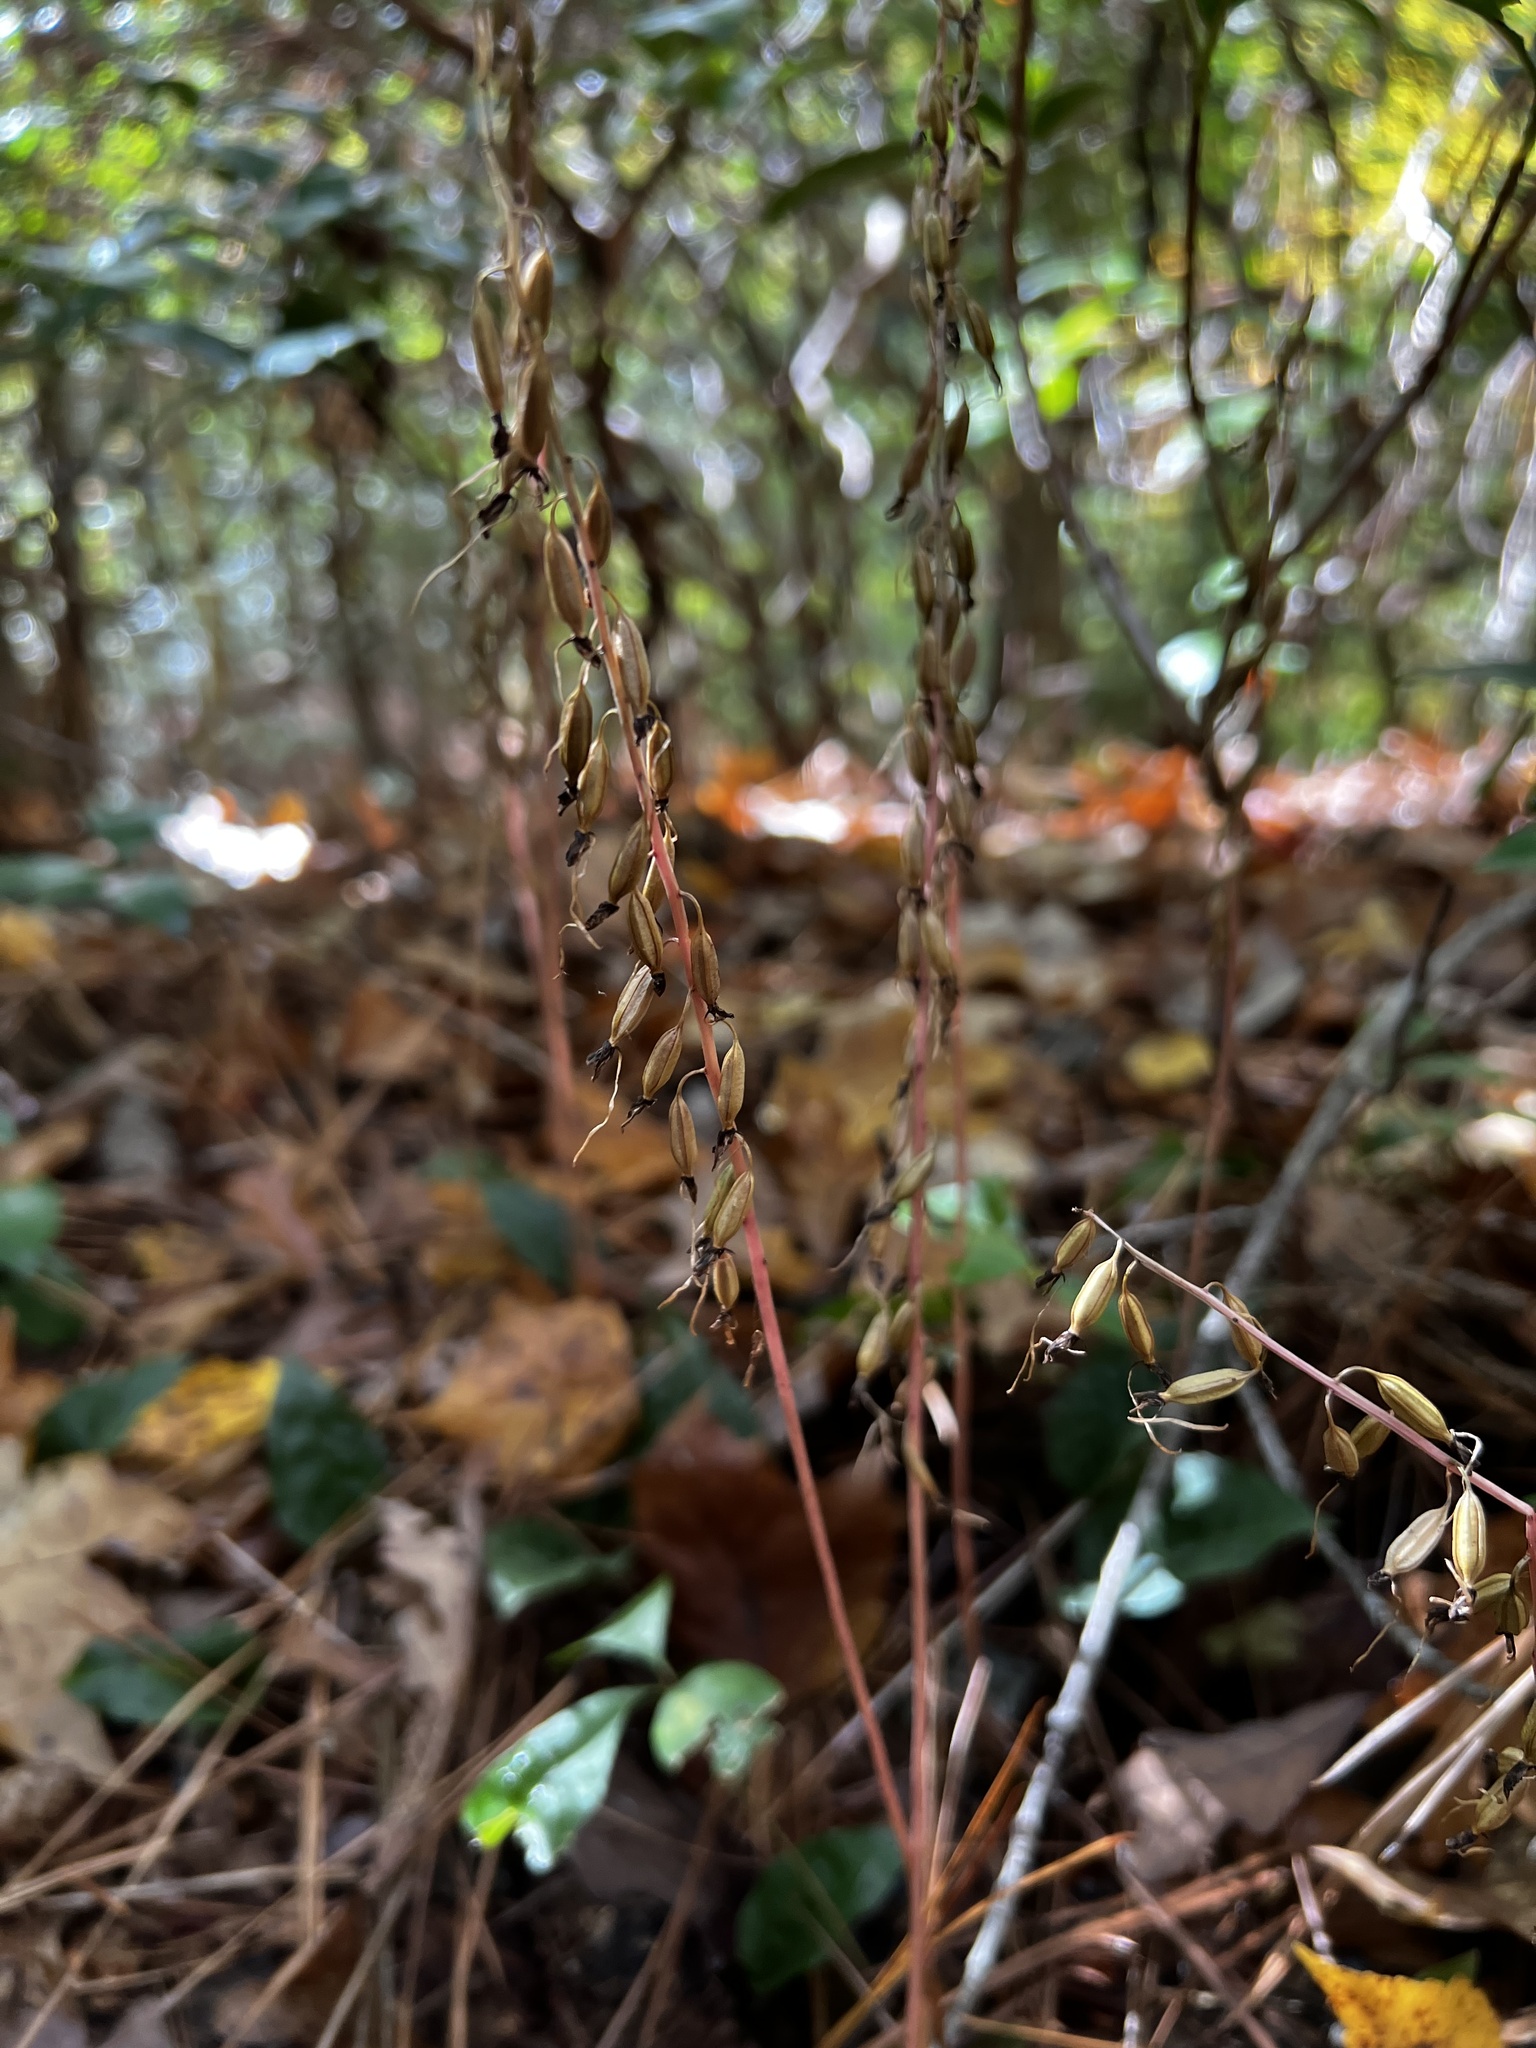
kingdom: Plantae
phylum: Tracheophyta
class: Liliopsida
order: Asparagales
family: Orchidaceae
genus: Tipularia
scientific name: Tipularia discolor
